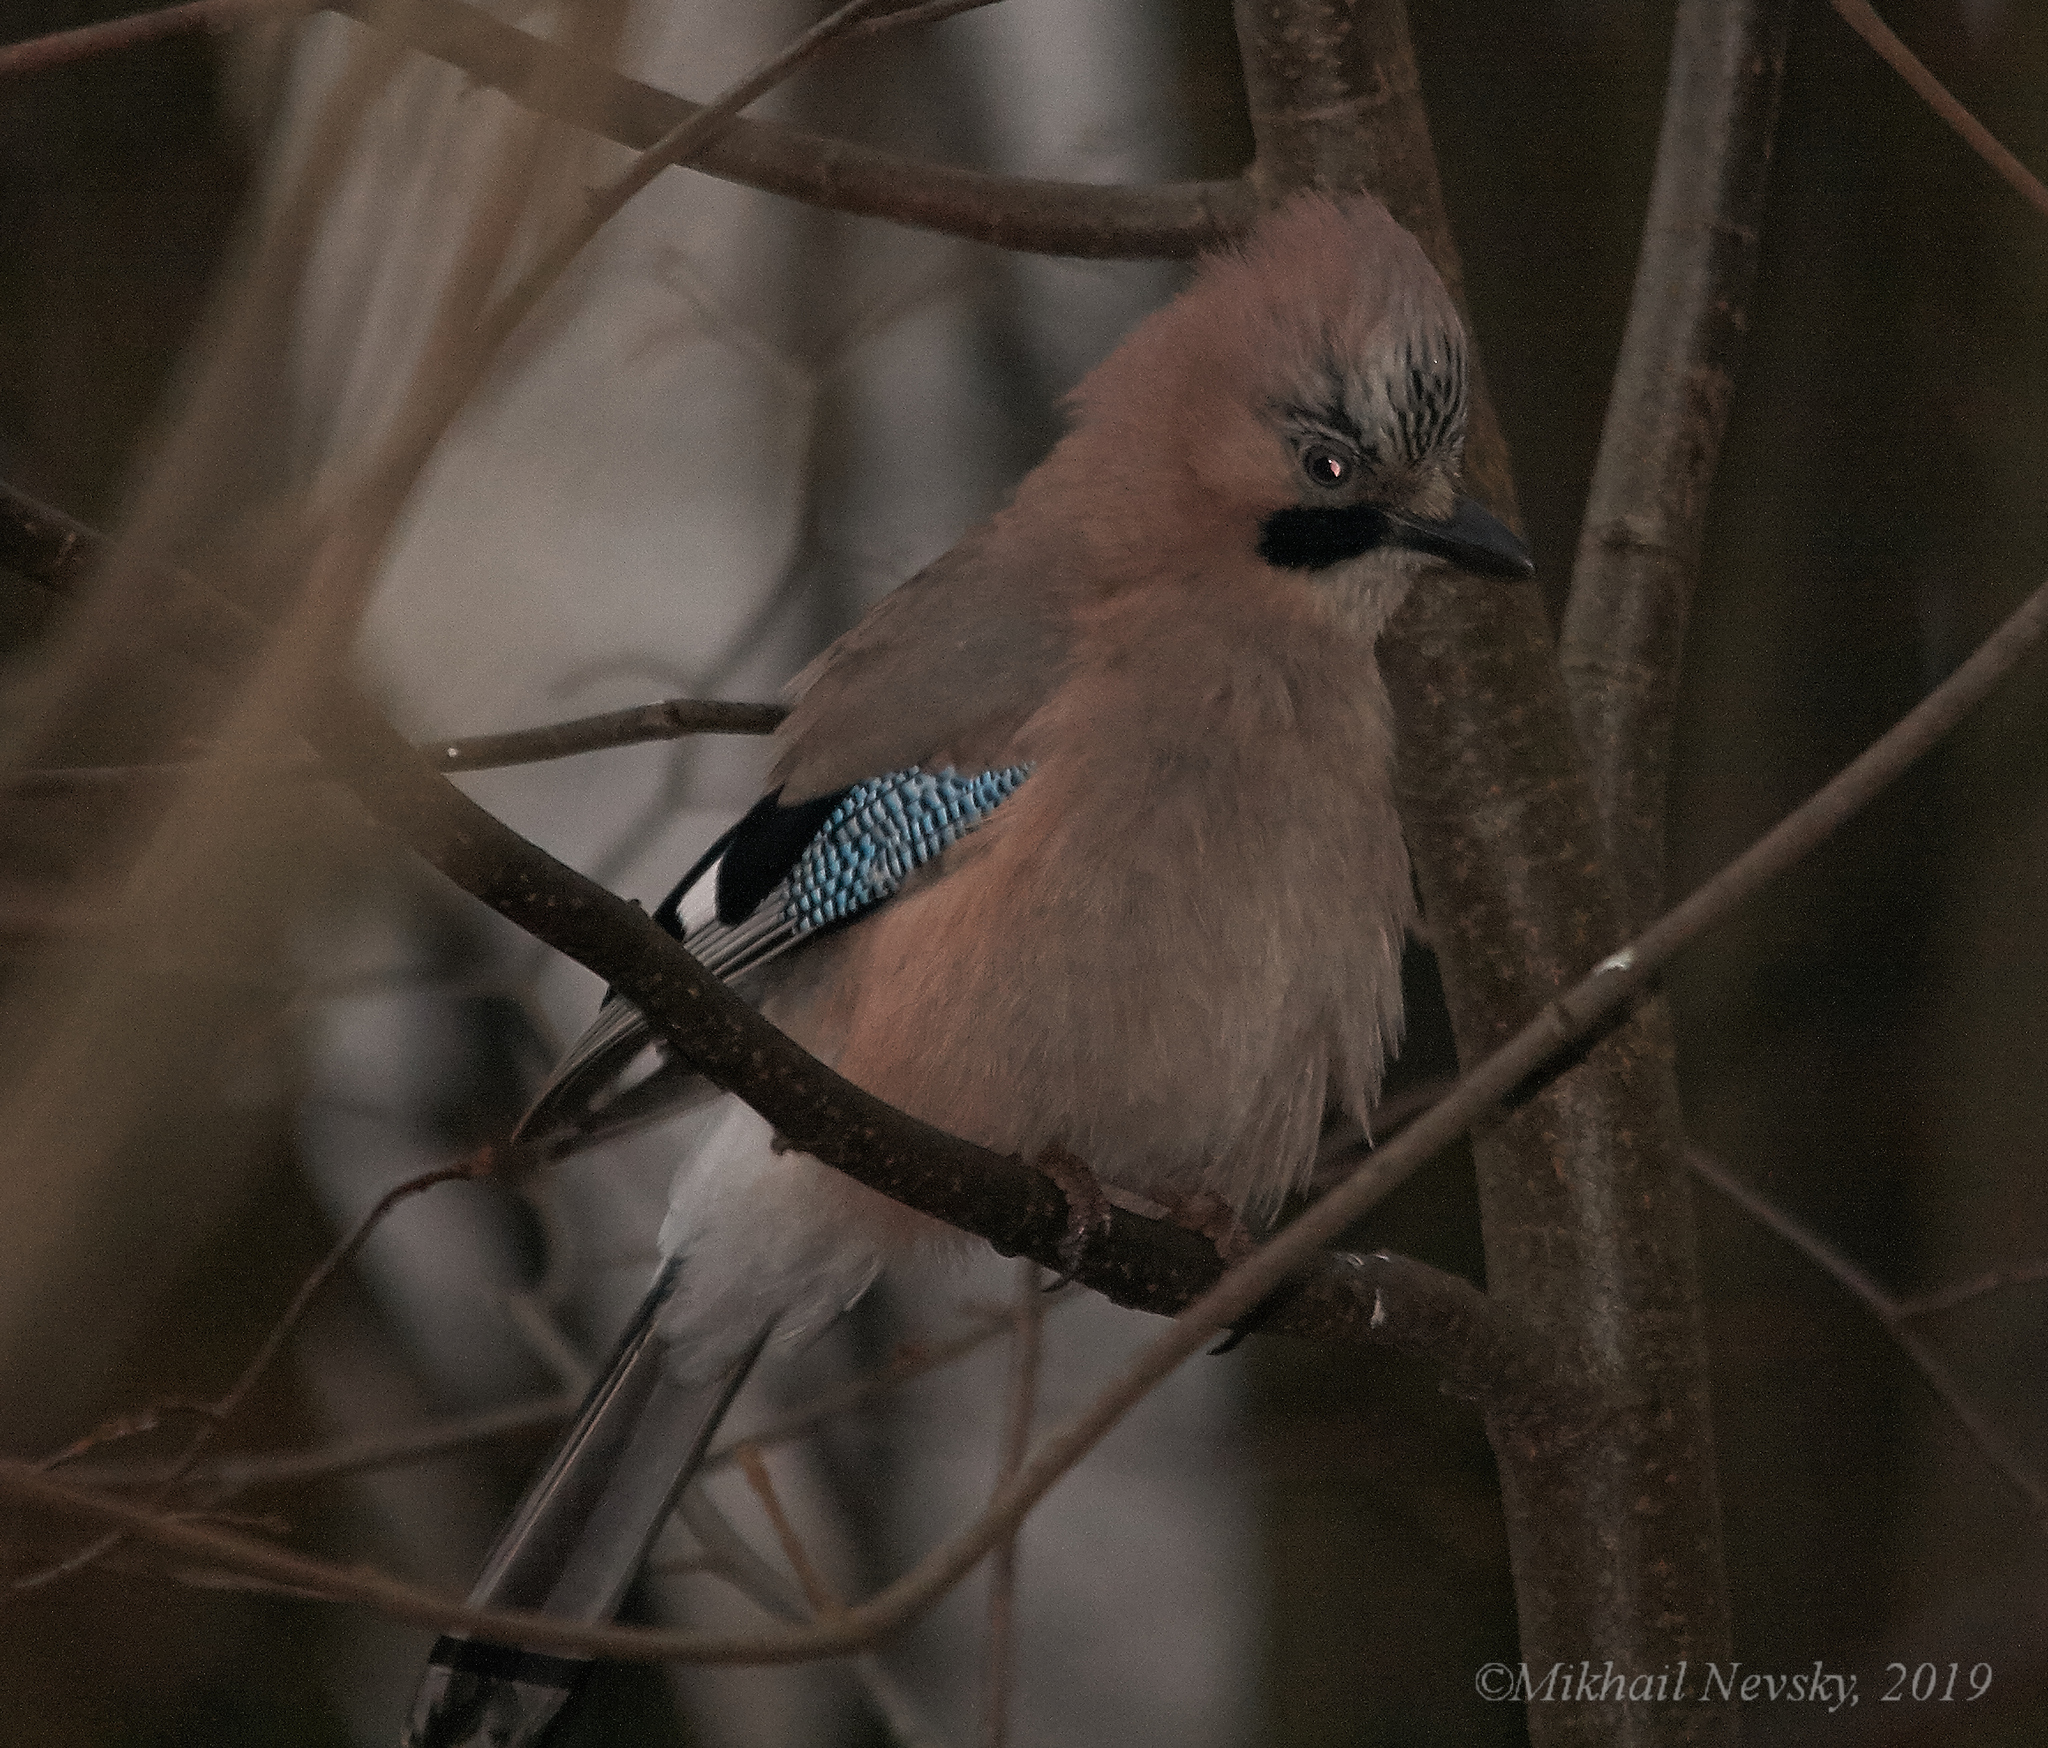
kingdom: Animalia
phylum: Chordata
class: Aves
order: Passeriformes
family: Corvidae
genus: Garrulus
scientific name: Garrulus glandarius
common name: Eurasian jay
